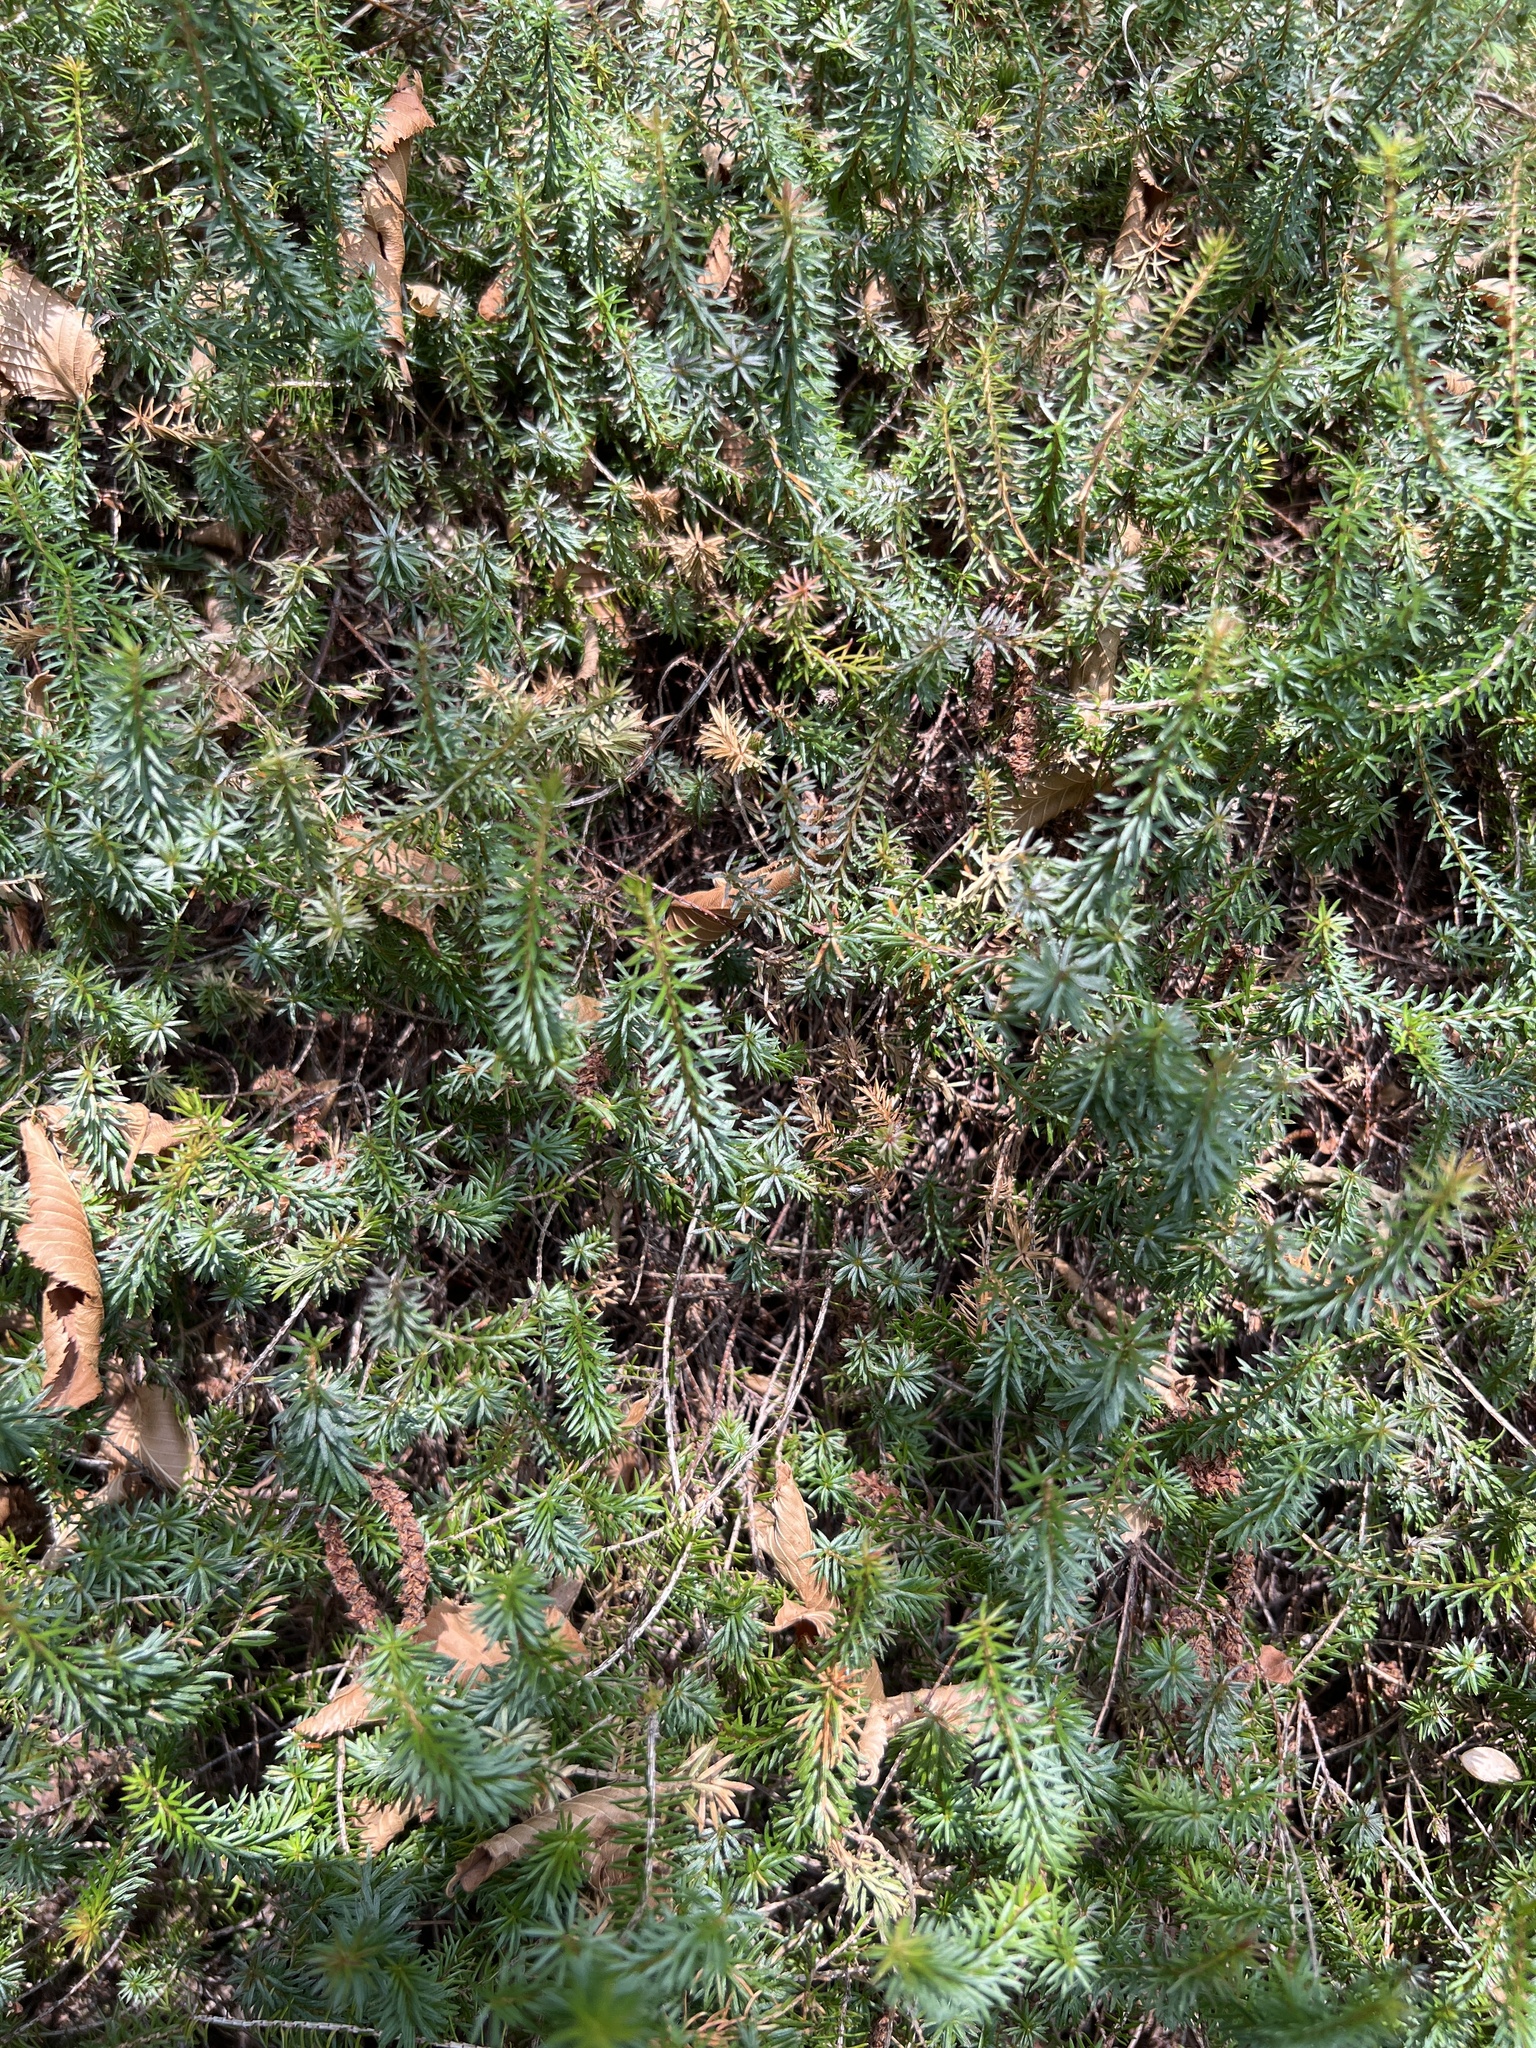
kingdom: Plantae
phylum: Tracheophyta
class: Magnoliopsida
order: Ericales
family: Ericaceae
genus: Erica
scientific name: Erica carnea
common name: Winter heath
